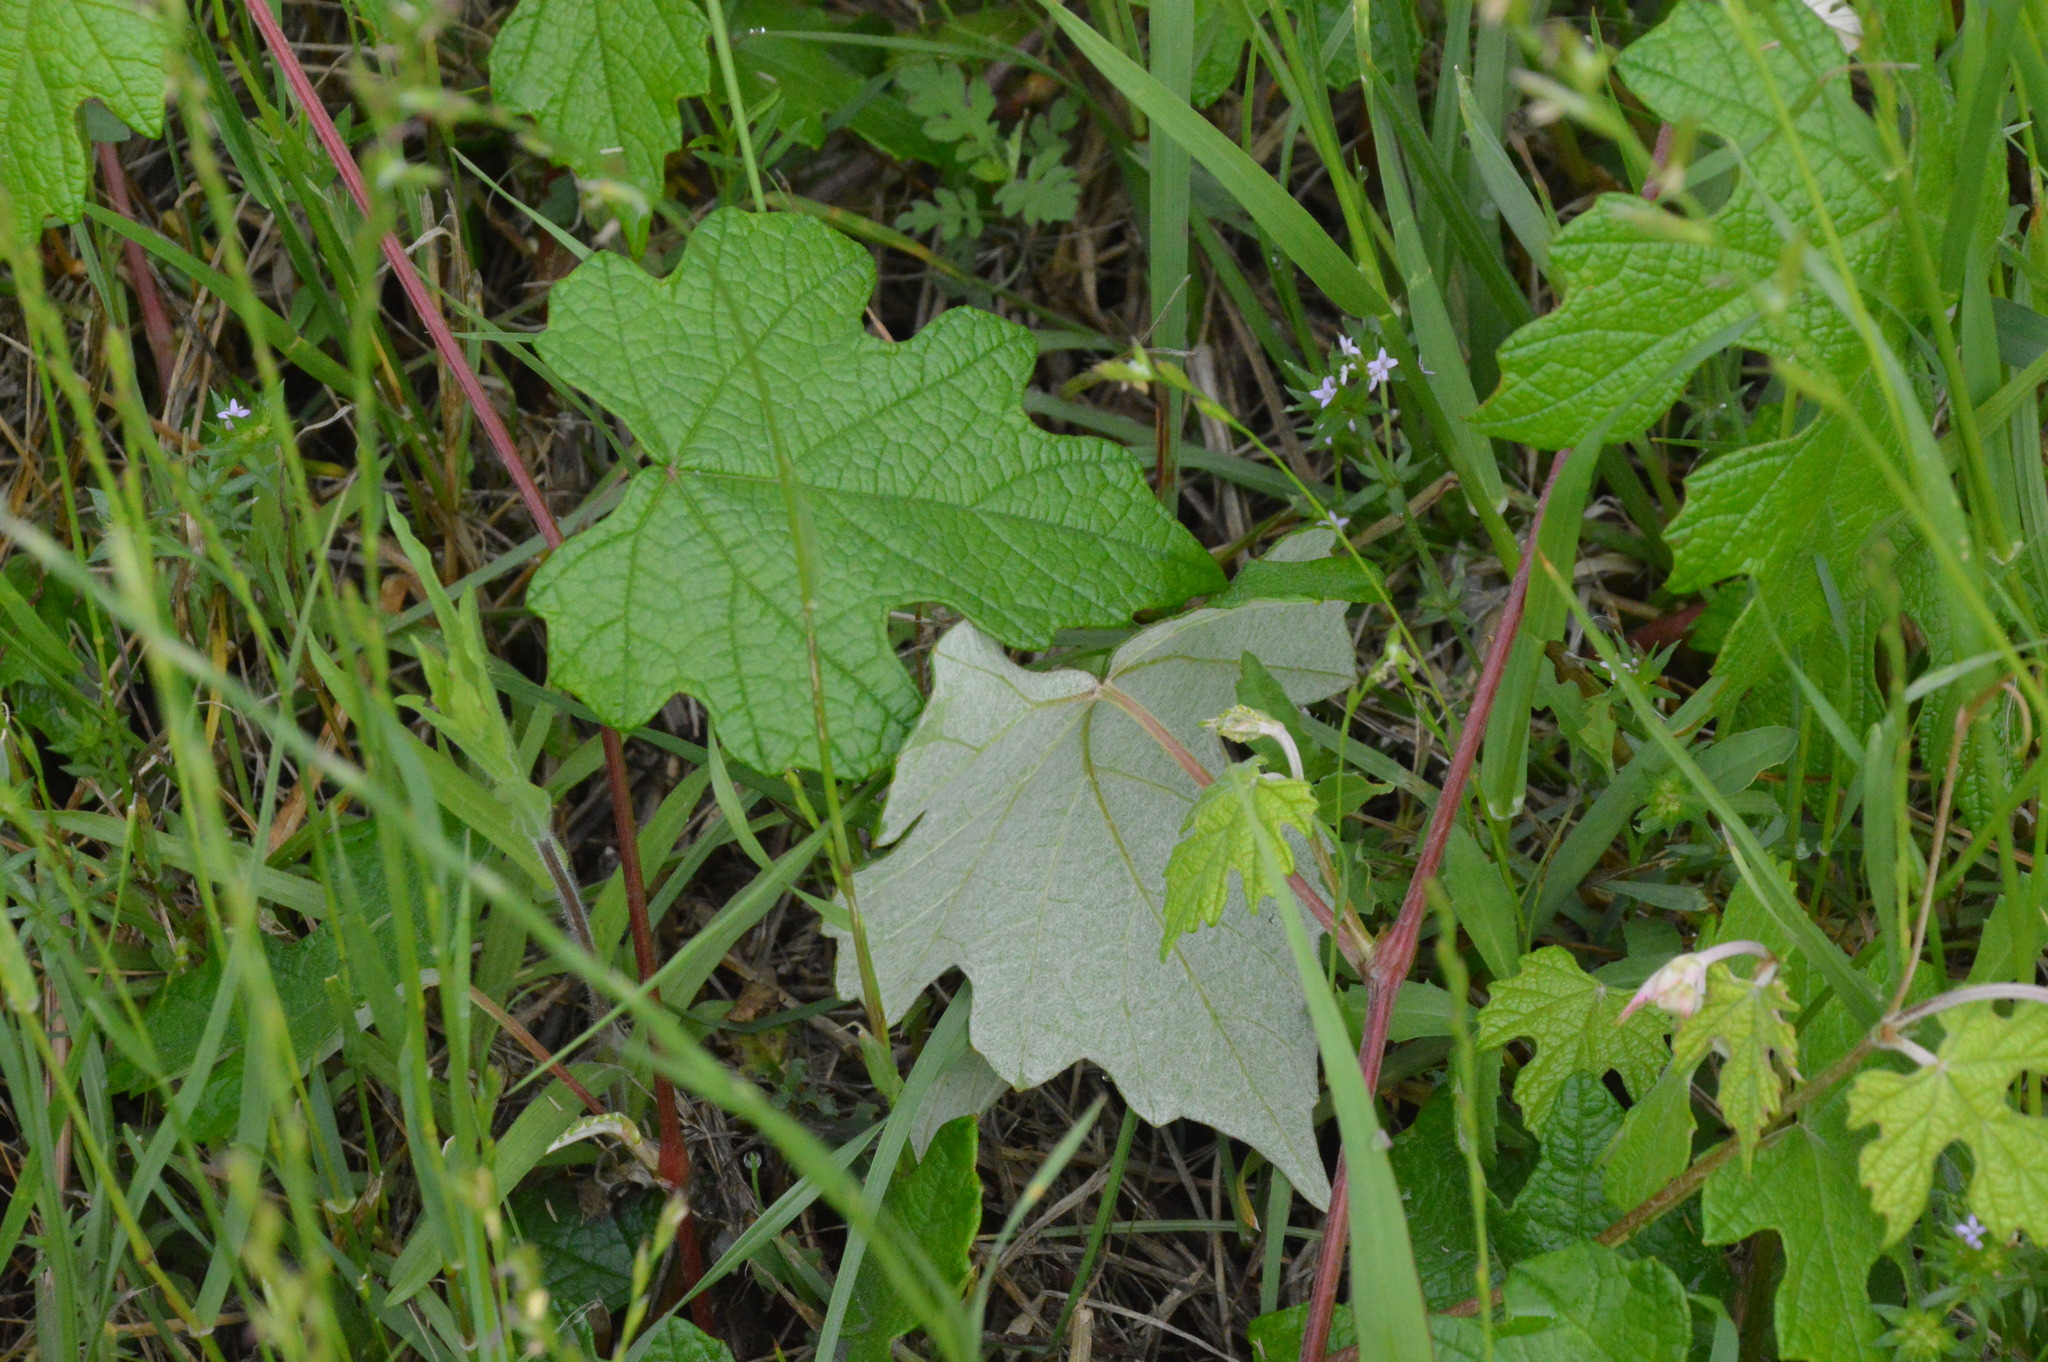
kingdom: Plantae
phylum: Tracheophyta
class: Magnoliopsida
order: Vitales
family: Vitaceae
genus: Vitis
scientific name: Vitis mustangensis
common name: Mustang grape
